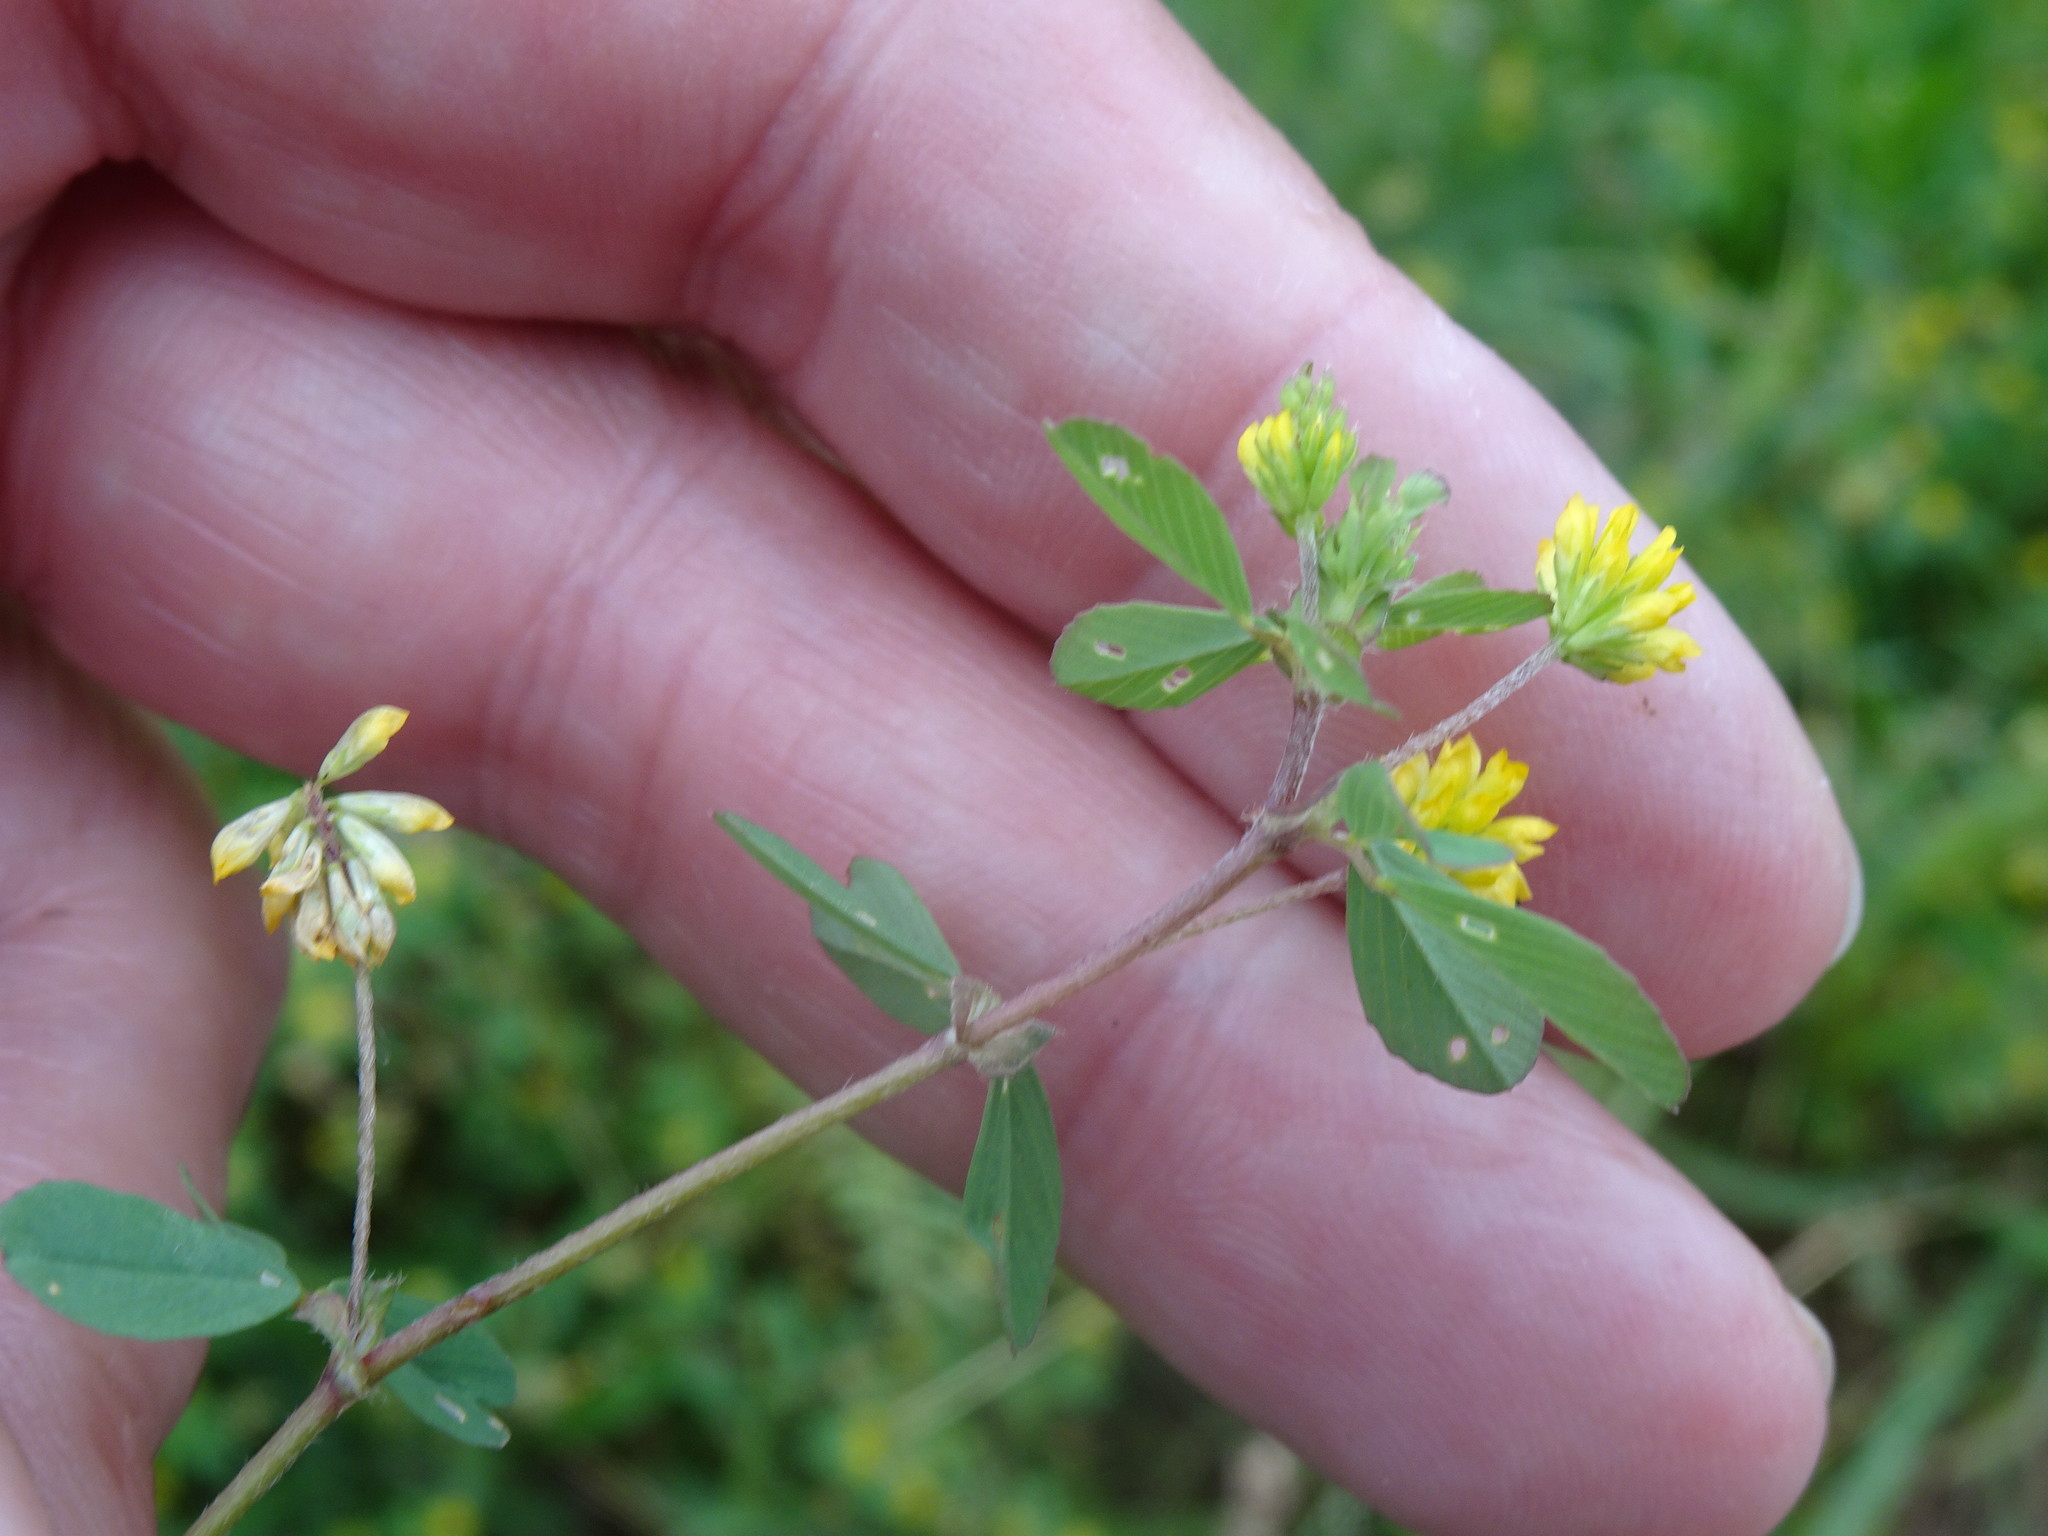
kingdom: Plantae
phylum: Tracheophyta
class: Magnoliopsida
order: Fabales
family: Fabaceae
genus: Trifolium
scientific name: Trifolium dubium
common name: Suckling clover
